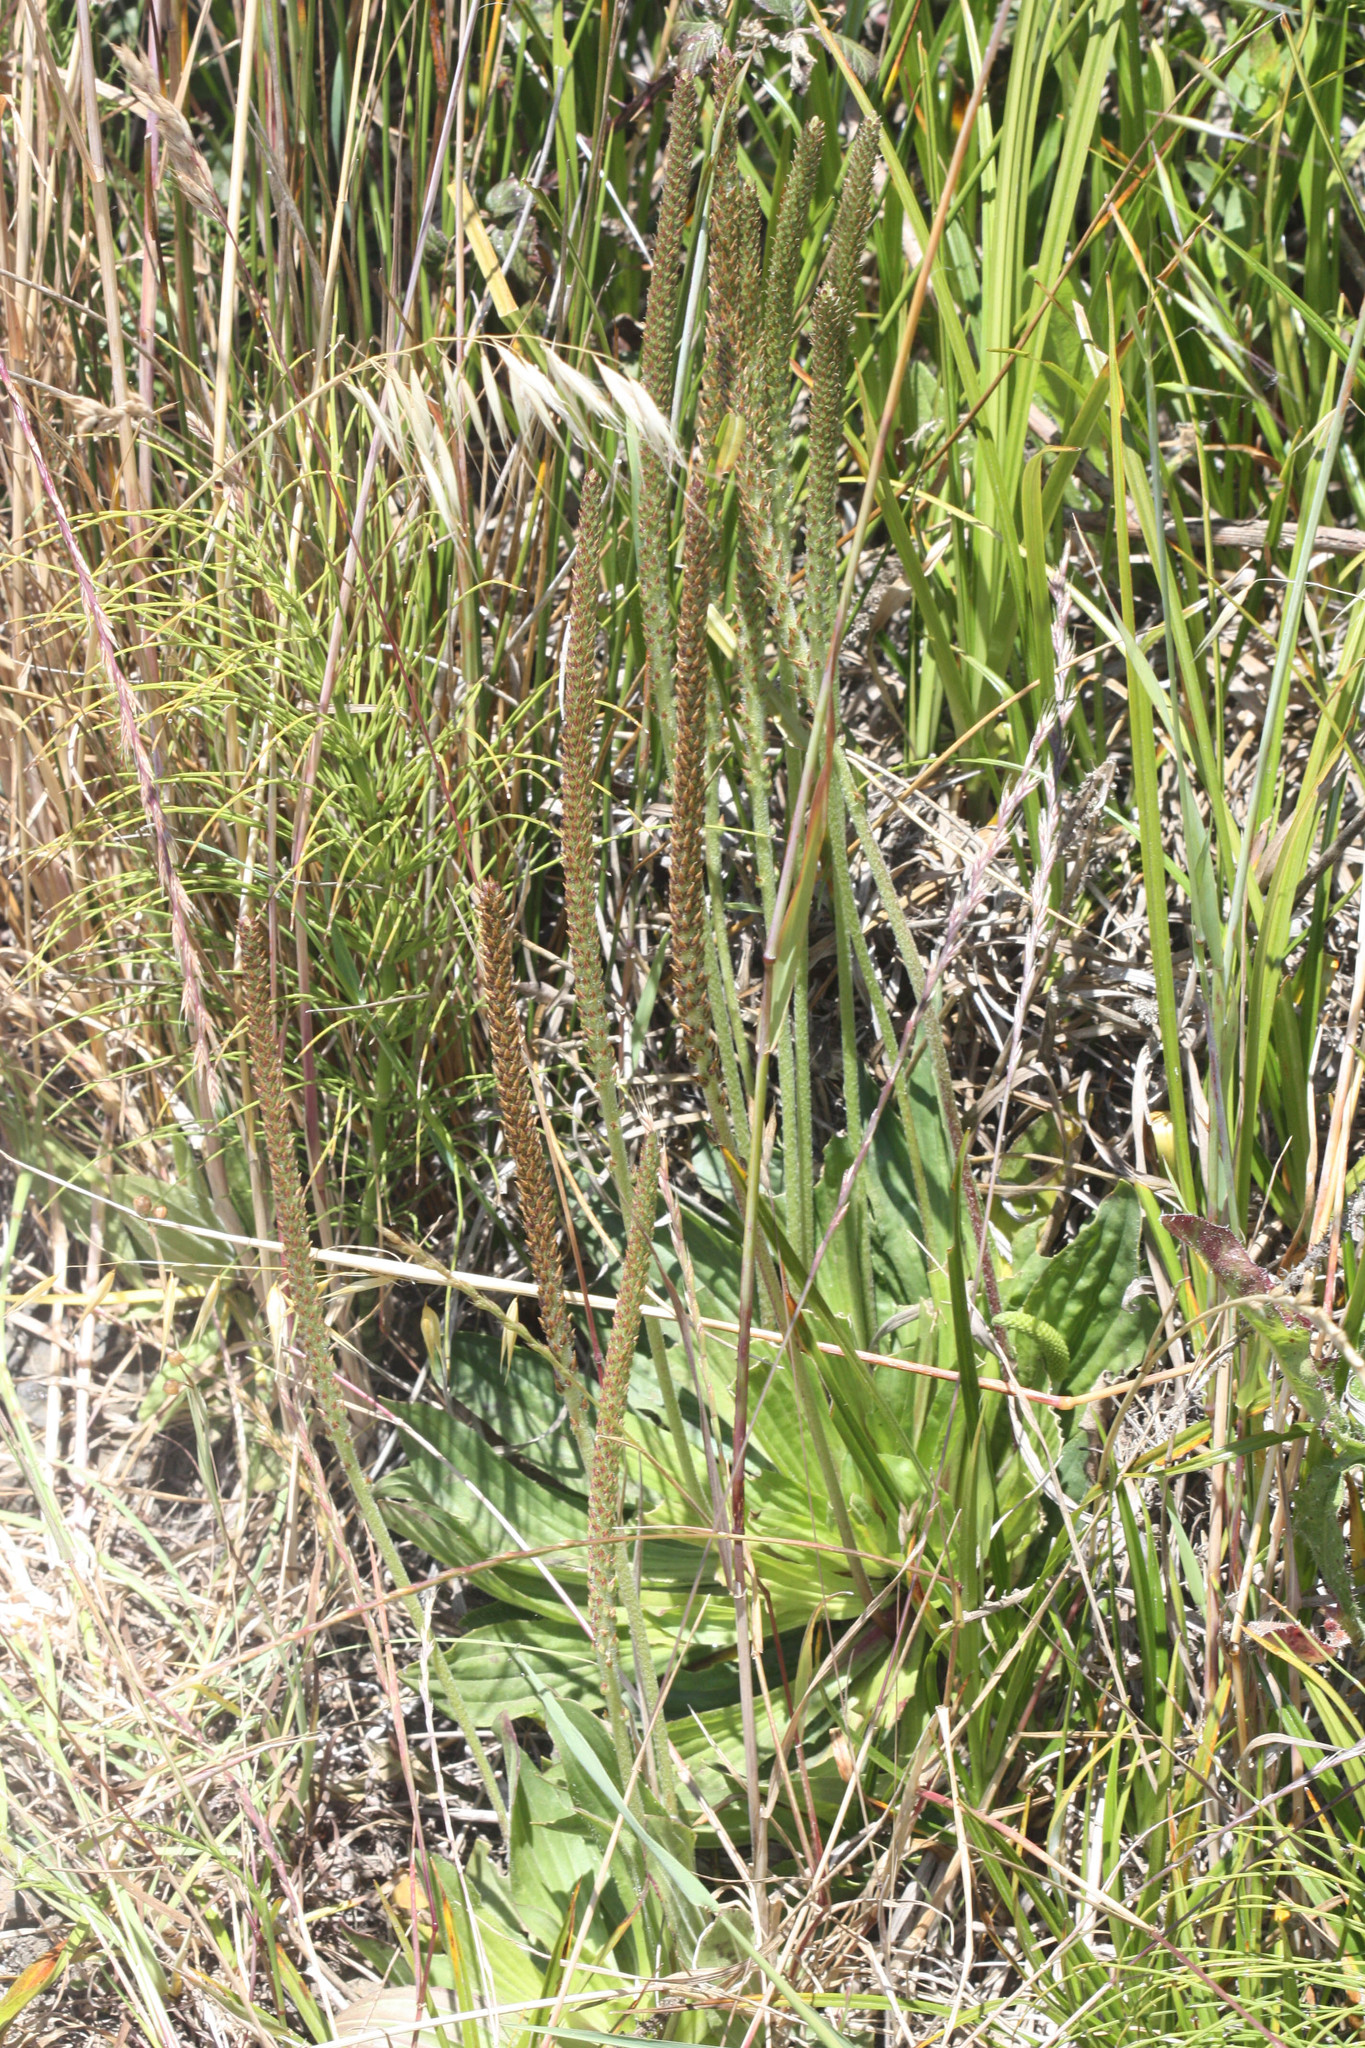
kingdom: Plantae
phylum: Tracheophyta
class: Magnoliopsida
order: Lamiales
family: Plantaginaceae
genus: Plantago
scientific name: Plantago major
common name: Common plantain
